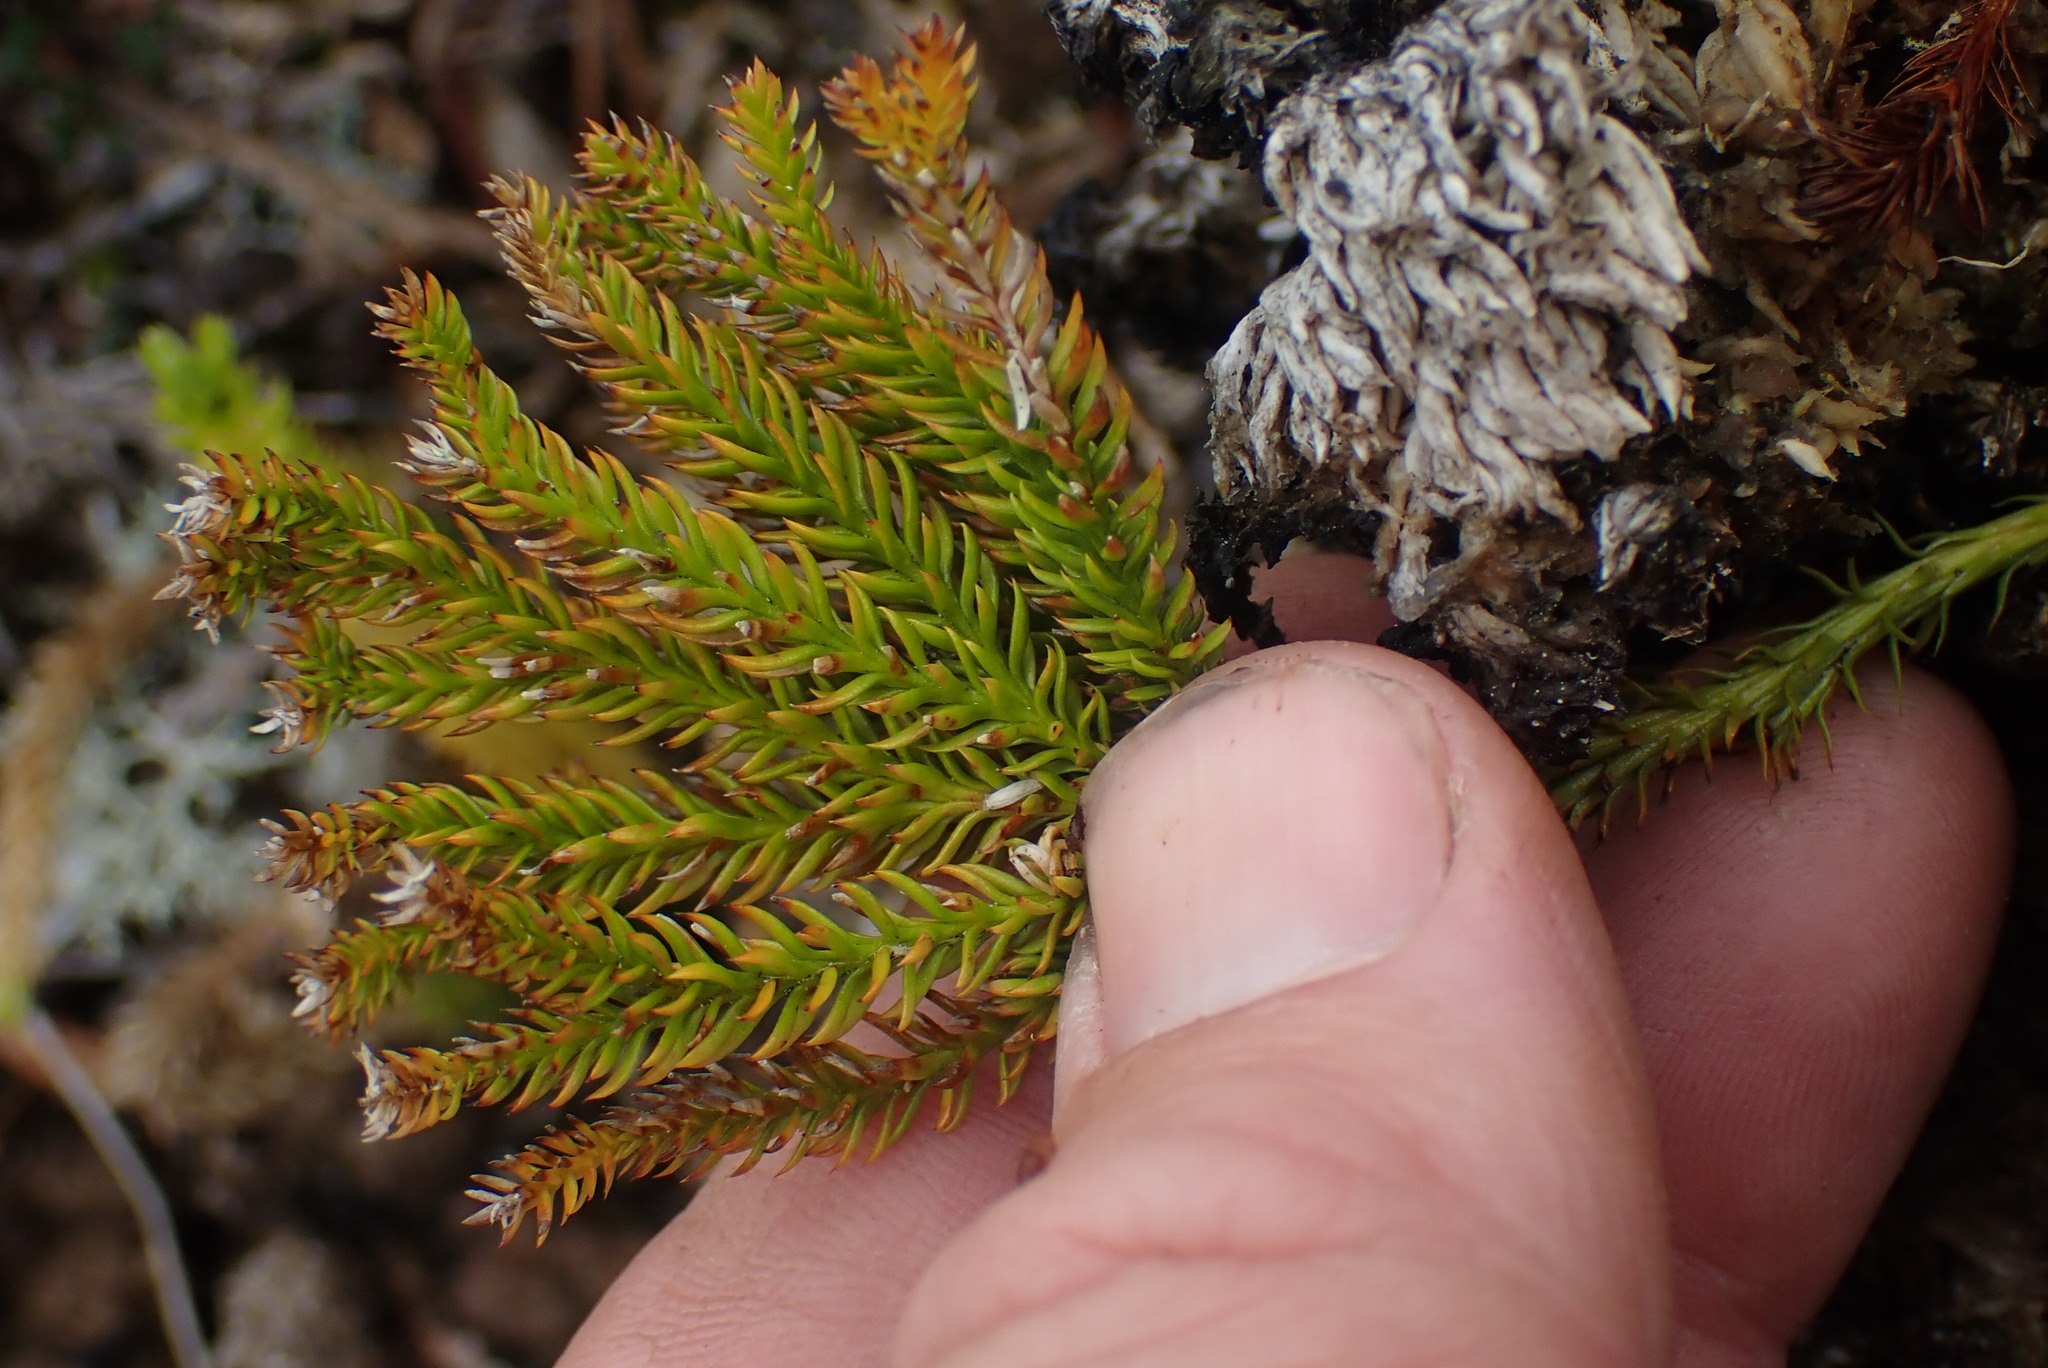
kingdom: Plantae
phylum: Tracheophyta
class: Lycopodiopsida
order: Lycopodiales
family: Lycopodiaceae
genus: Dendrolycopodium
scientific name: Dendrolycopodium dendroideum
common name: Northern tree-clubmoss
